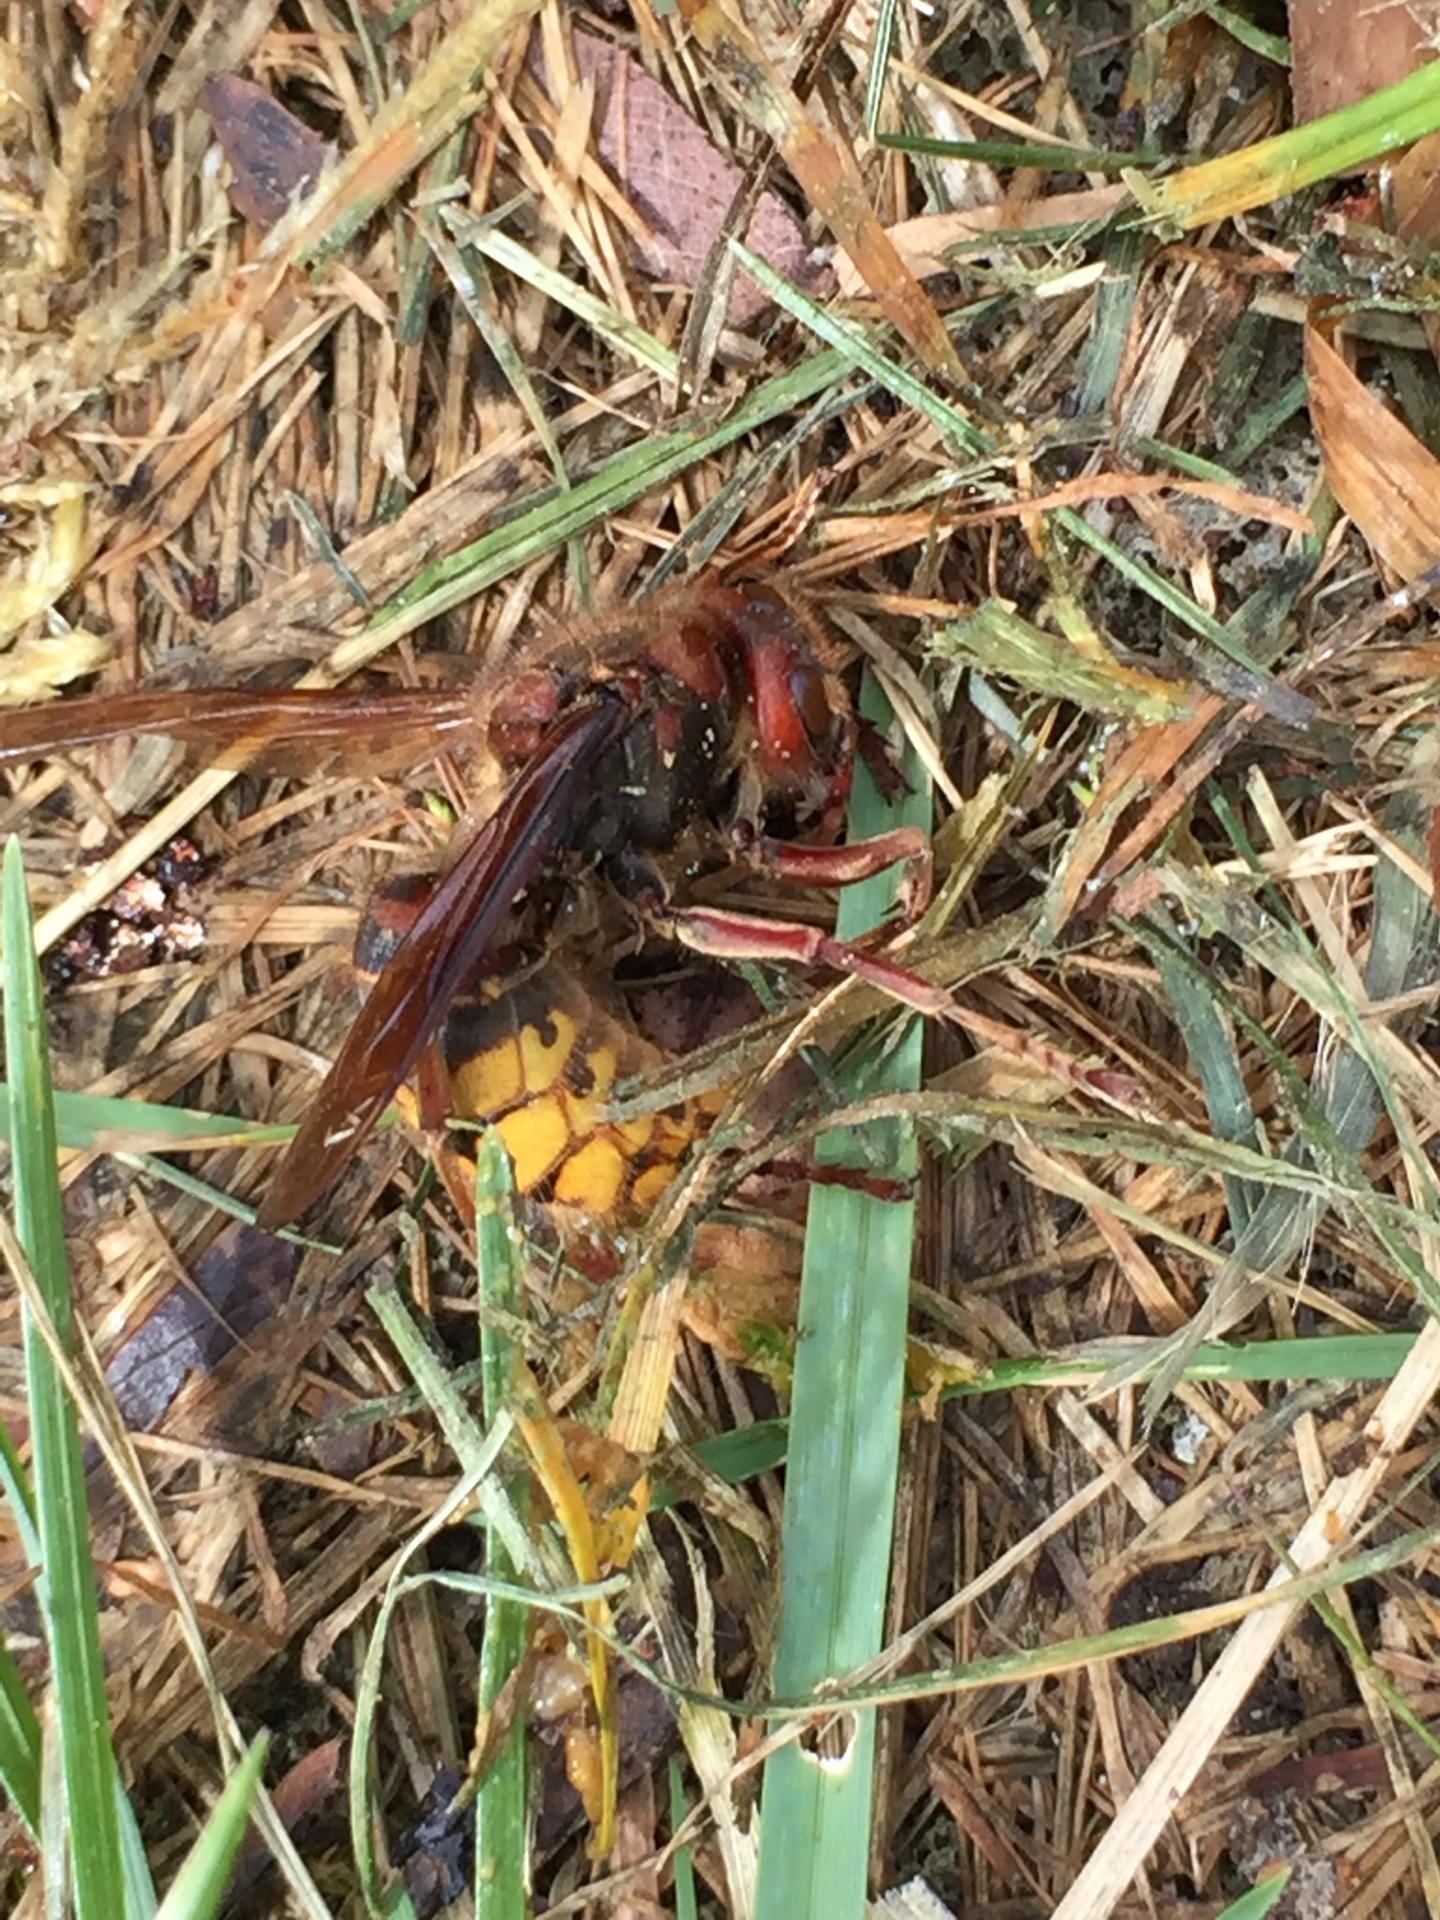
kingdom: Animalia
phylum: Arthropoda
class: Insecta
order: Hymenoptera
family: Vespidae
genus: Vespa
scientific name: Vespa crabro
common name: Hornet
